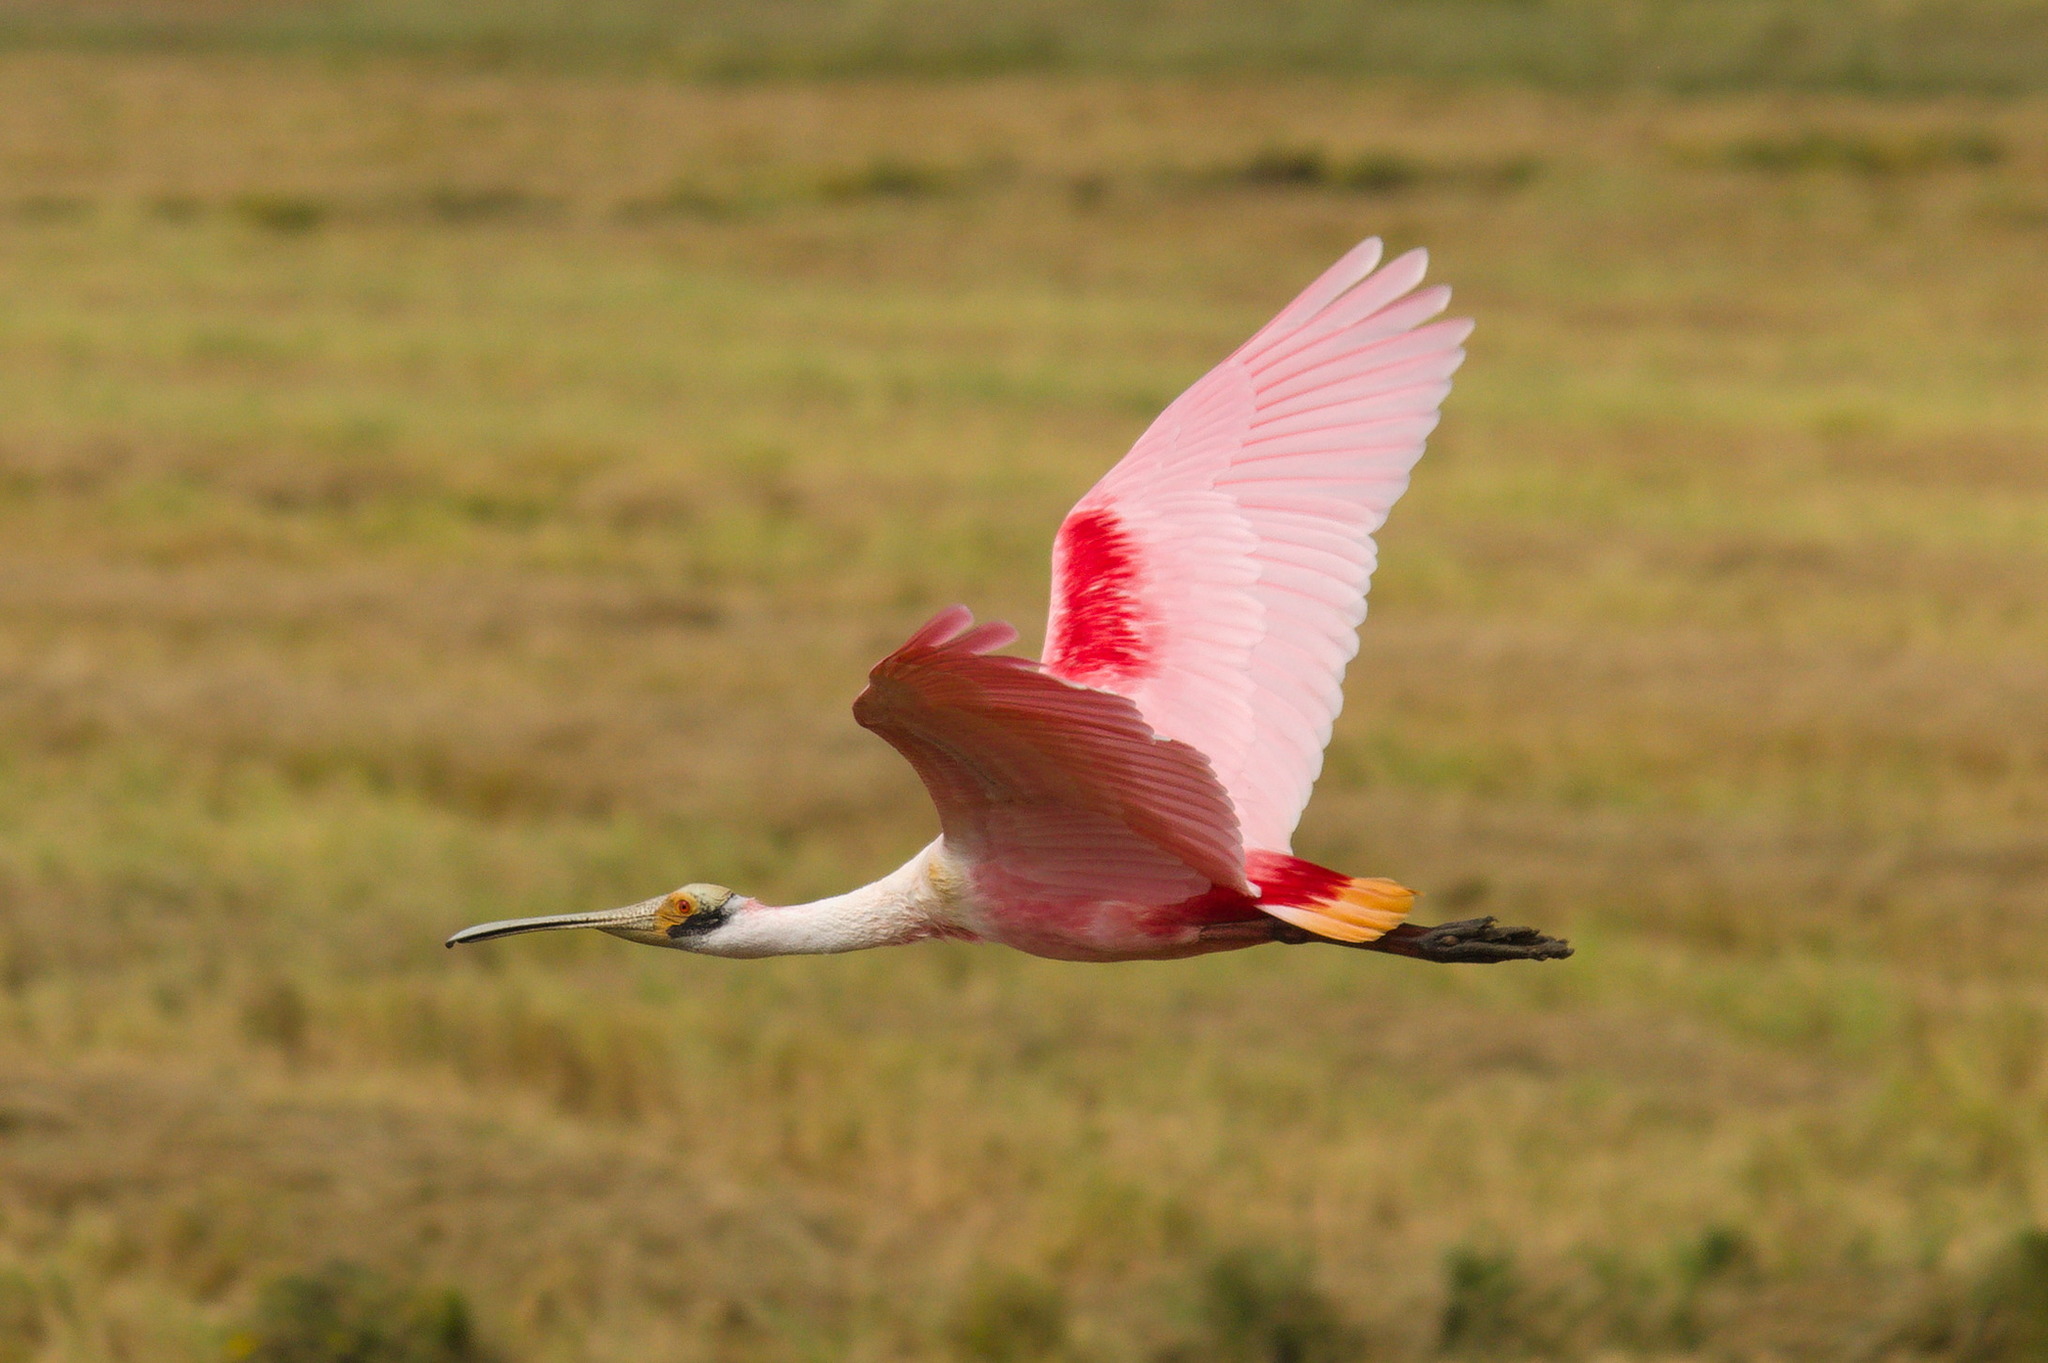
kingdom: Animalia
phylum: Chordata
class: Aves
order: Pelecaniformes
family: Threskiornithidae
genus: Platalea
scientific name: Platalea ajaja
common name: Roseate spoonbill
